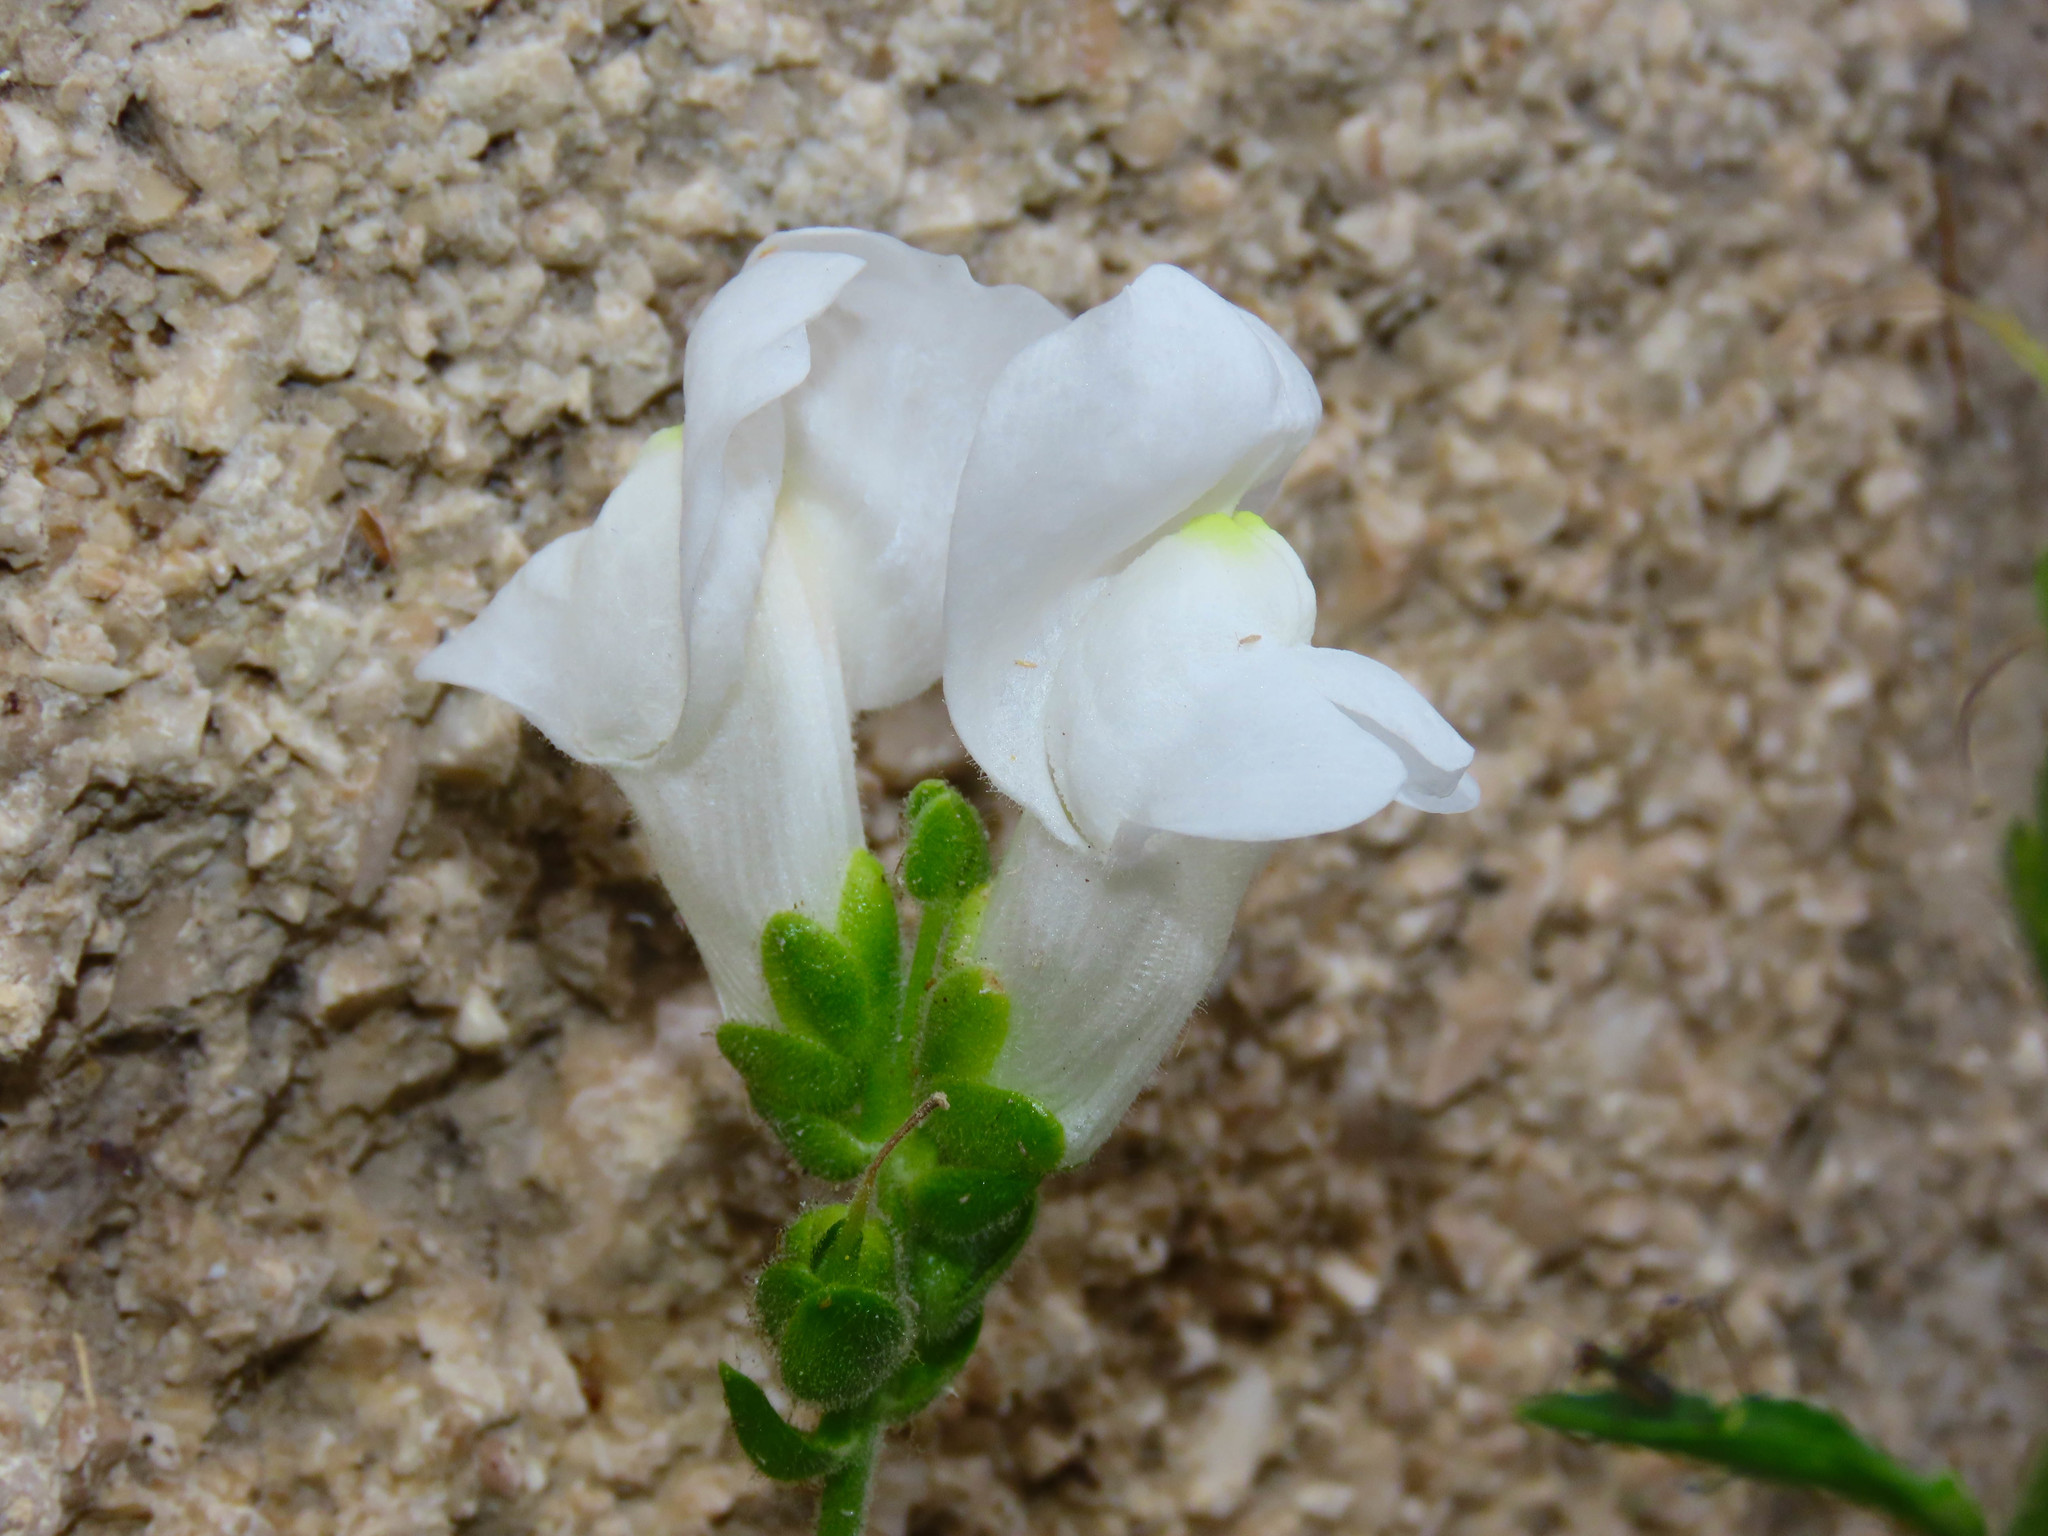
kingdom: Plantae
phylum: Tracheophyta
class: Magnoliopsida
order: Lamiales
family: Plantaginaceae
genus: Antirrhinum
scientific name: Antirrhinum majus
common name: Snapdragon
